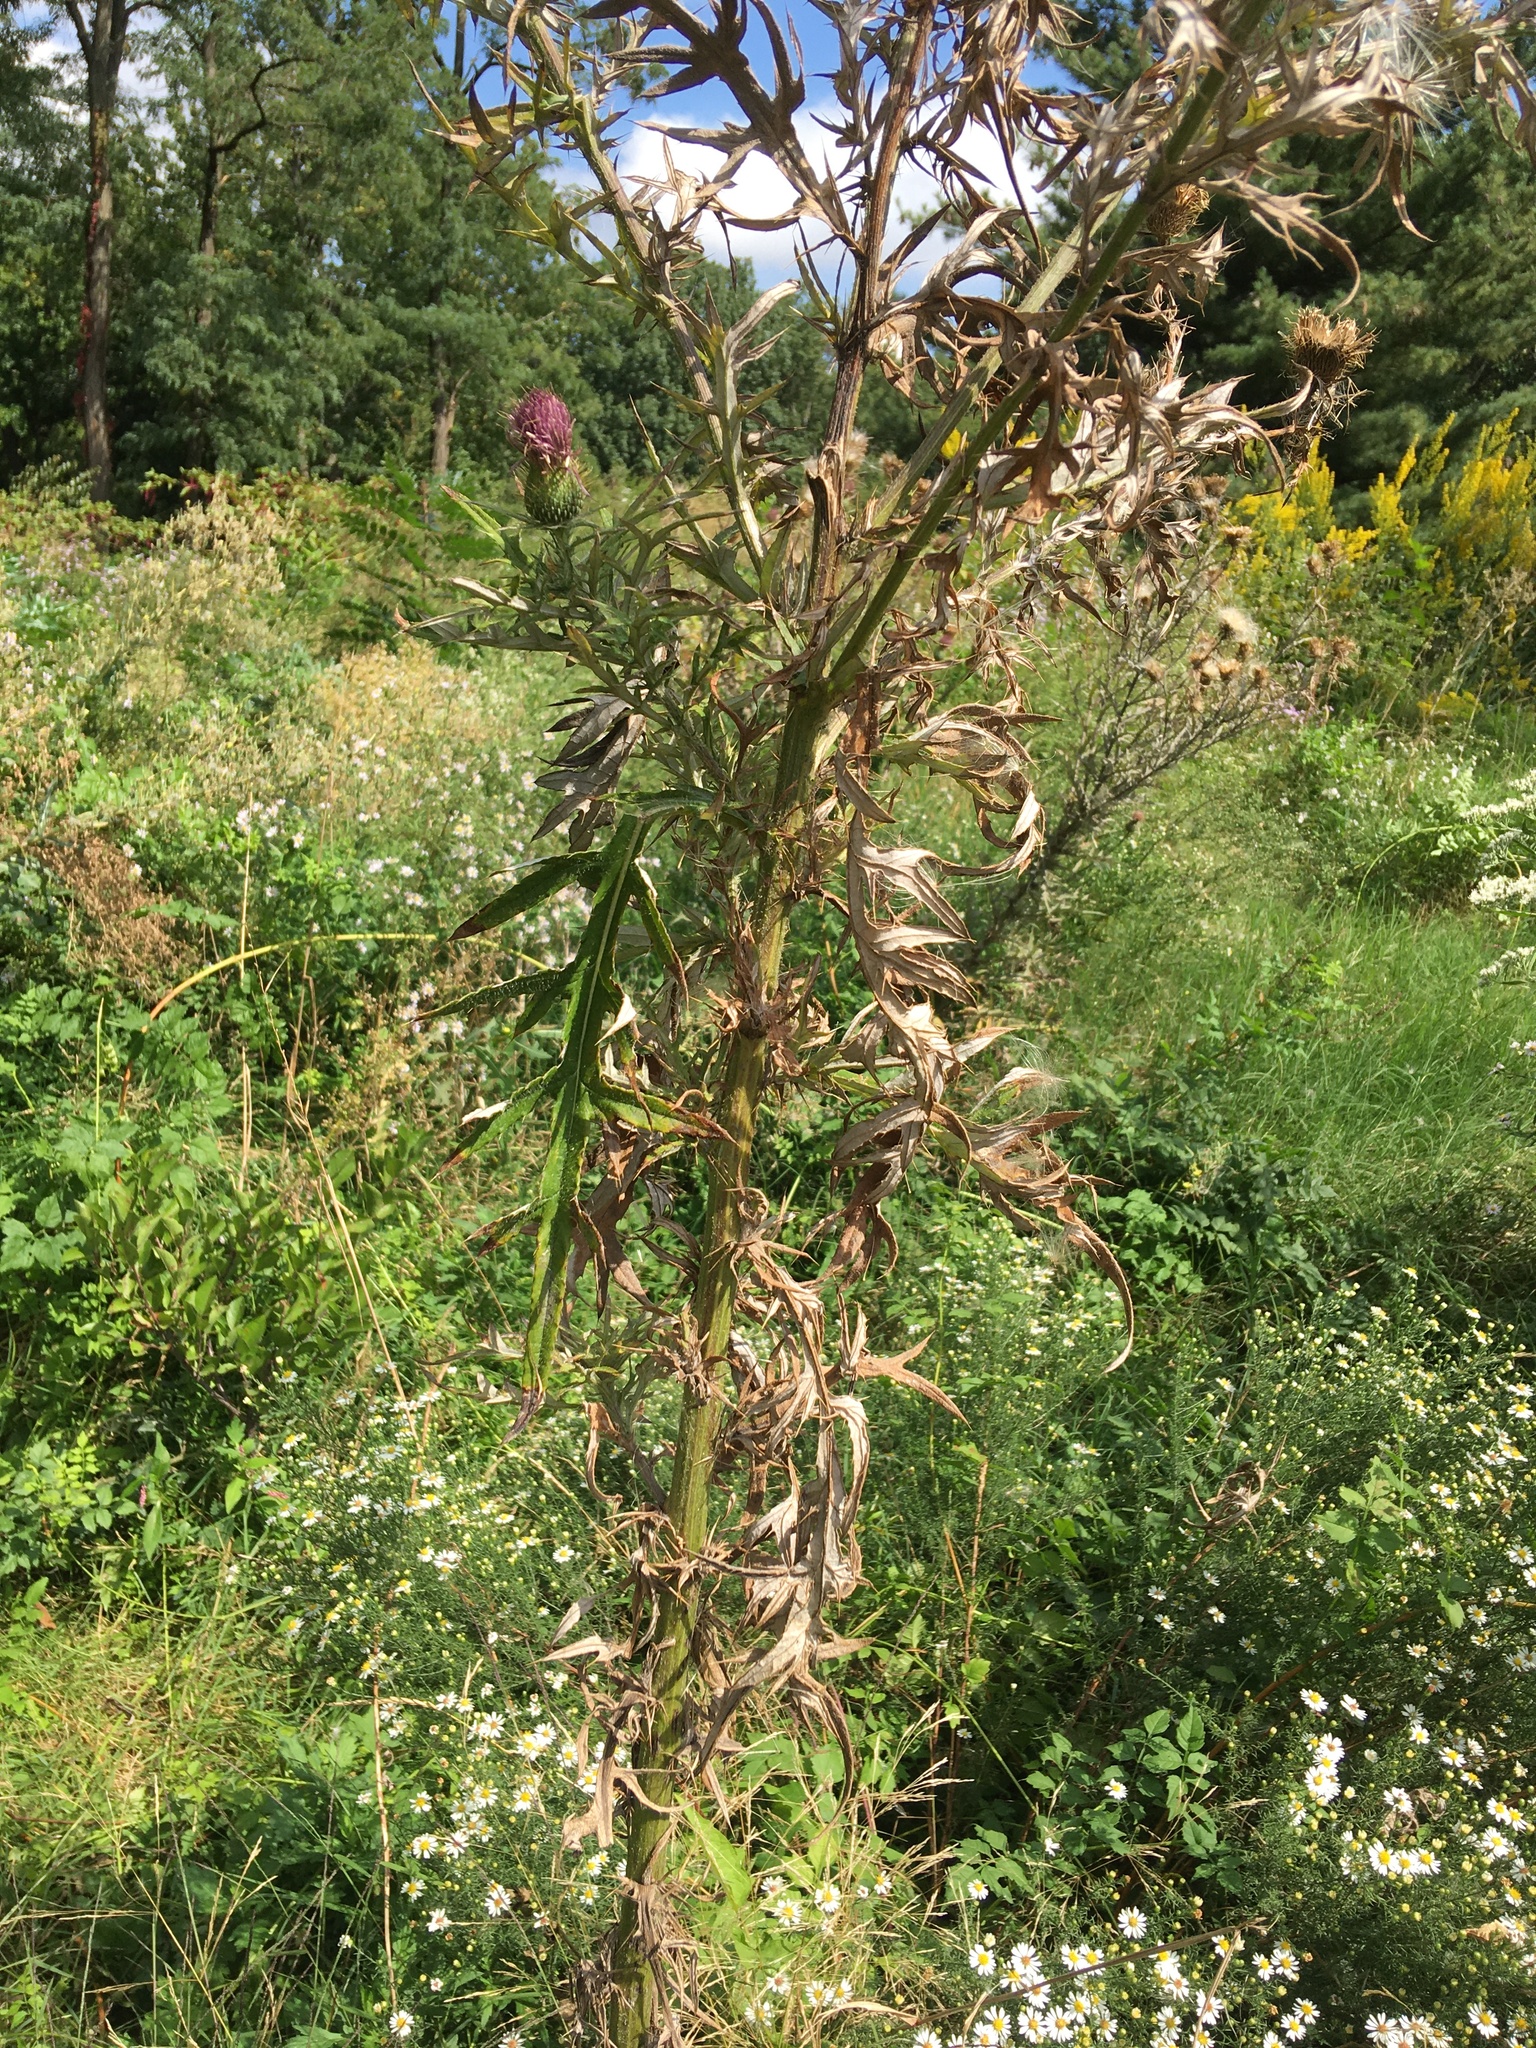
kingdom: Plantae
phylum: Tracheophyta
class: Magnoliopsida
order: Asterales
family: Asteraceae
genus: Cirsium
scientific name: Cirsium discolor
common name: Field thistle
